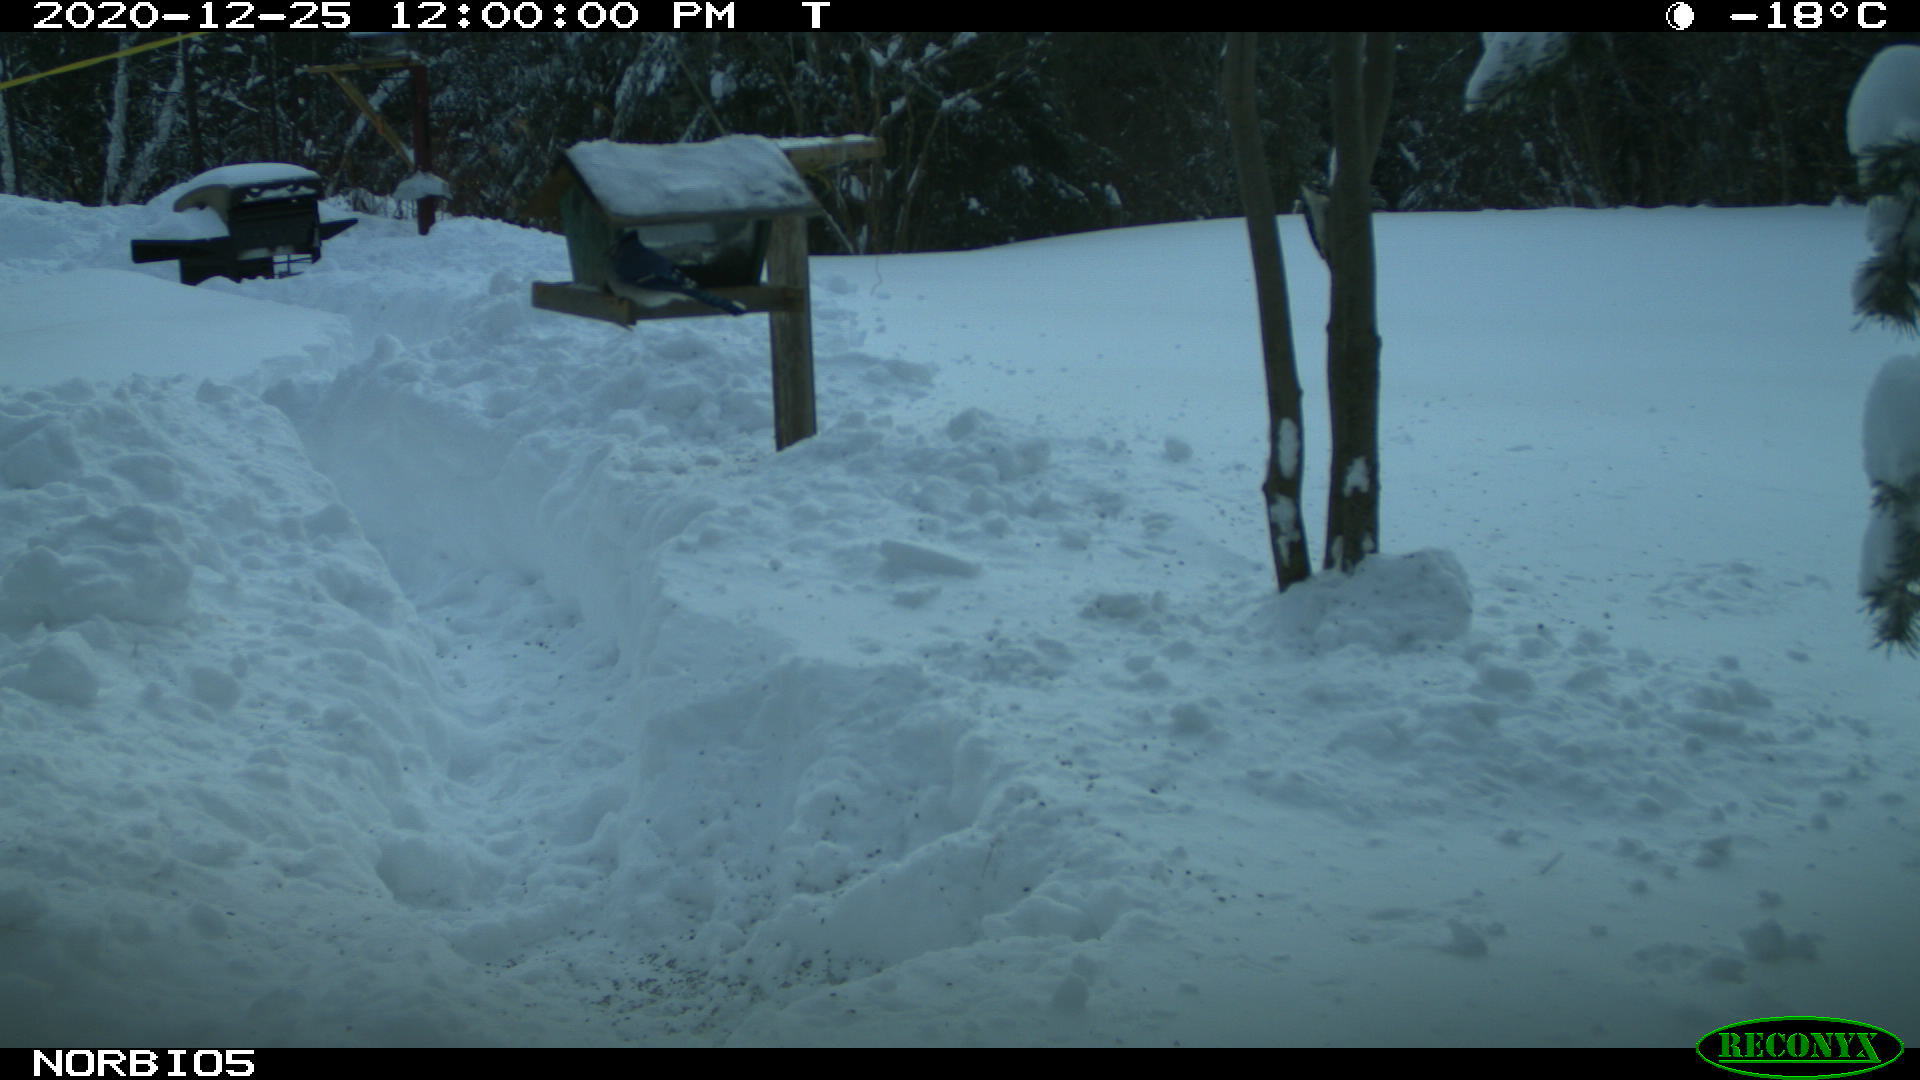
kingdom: Animalia
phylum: Chordata
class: Aves
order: Passeriformes
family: Corvidae
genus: Cyanocitta
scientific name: Cyanocitta cristata
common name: Blue jay
